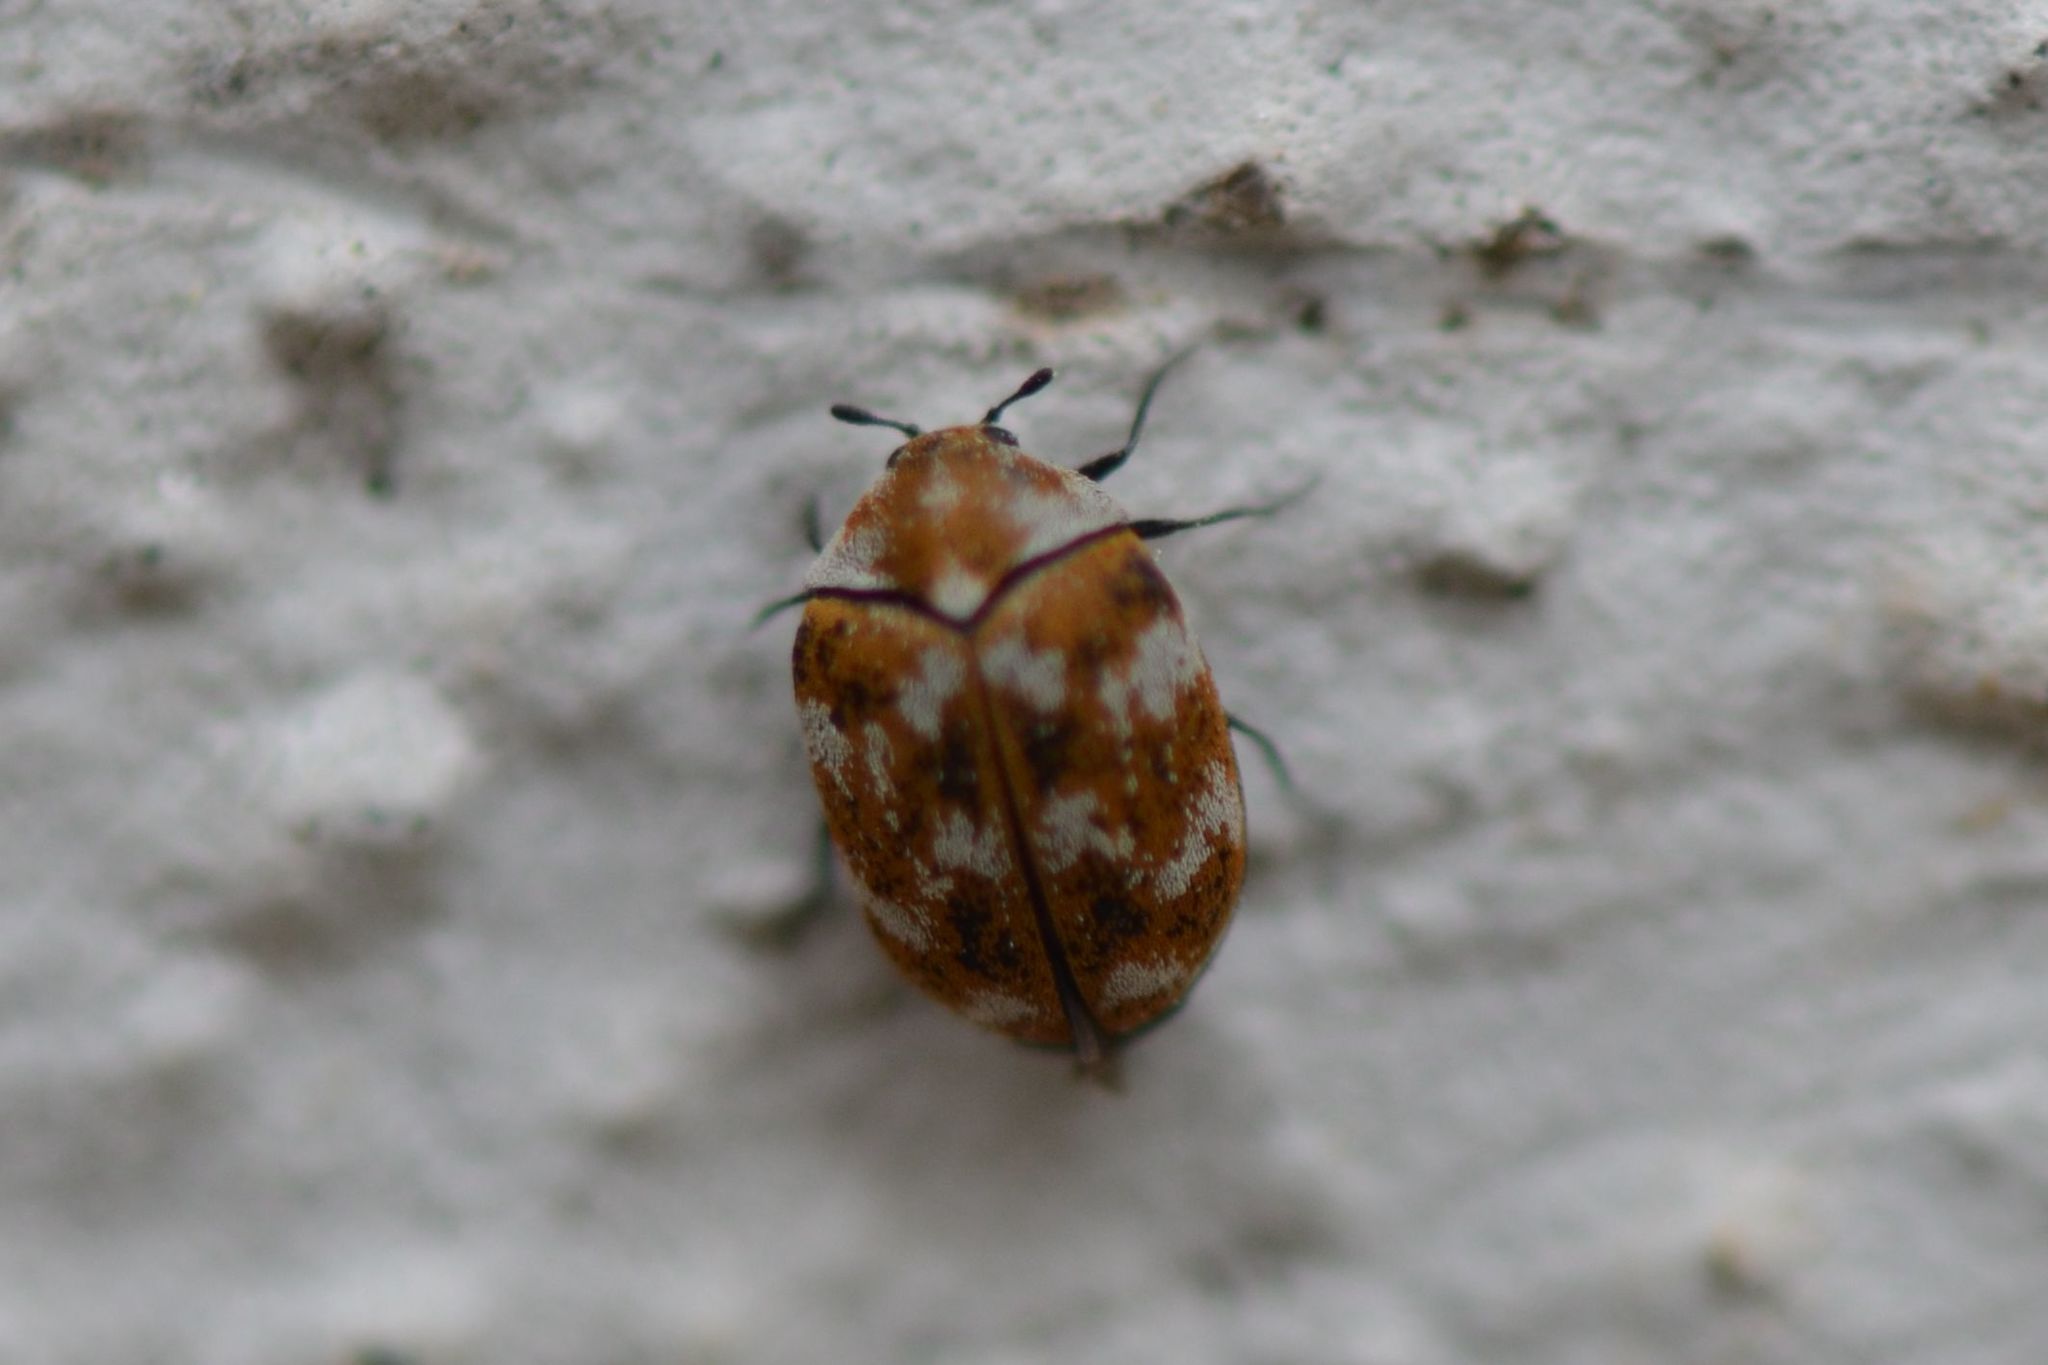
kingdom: Animalia
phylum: Arthropoda
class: Insecta
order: Coleoptera
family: Dermestidae
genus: Anthrenus
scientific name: Anthrenus verbasci
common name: Varied carpet beetle
